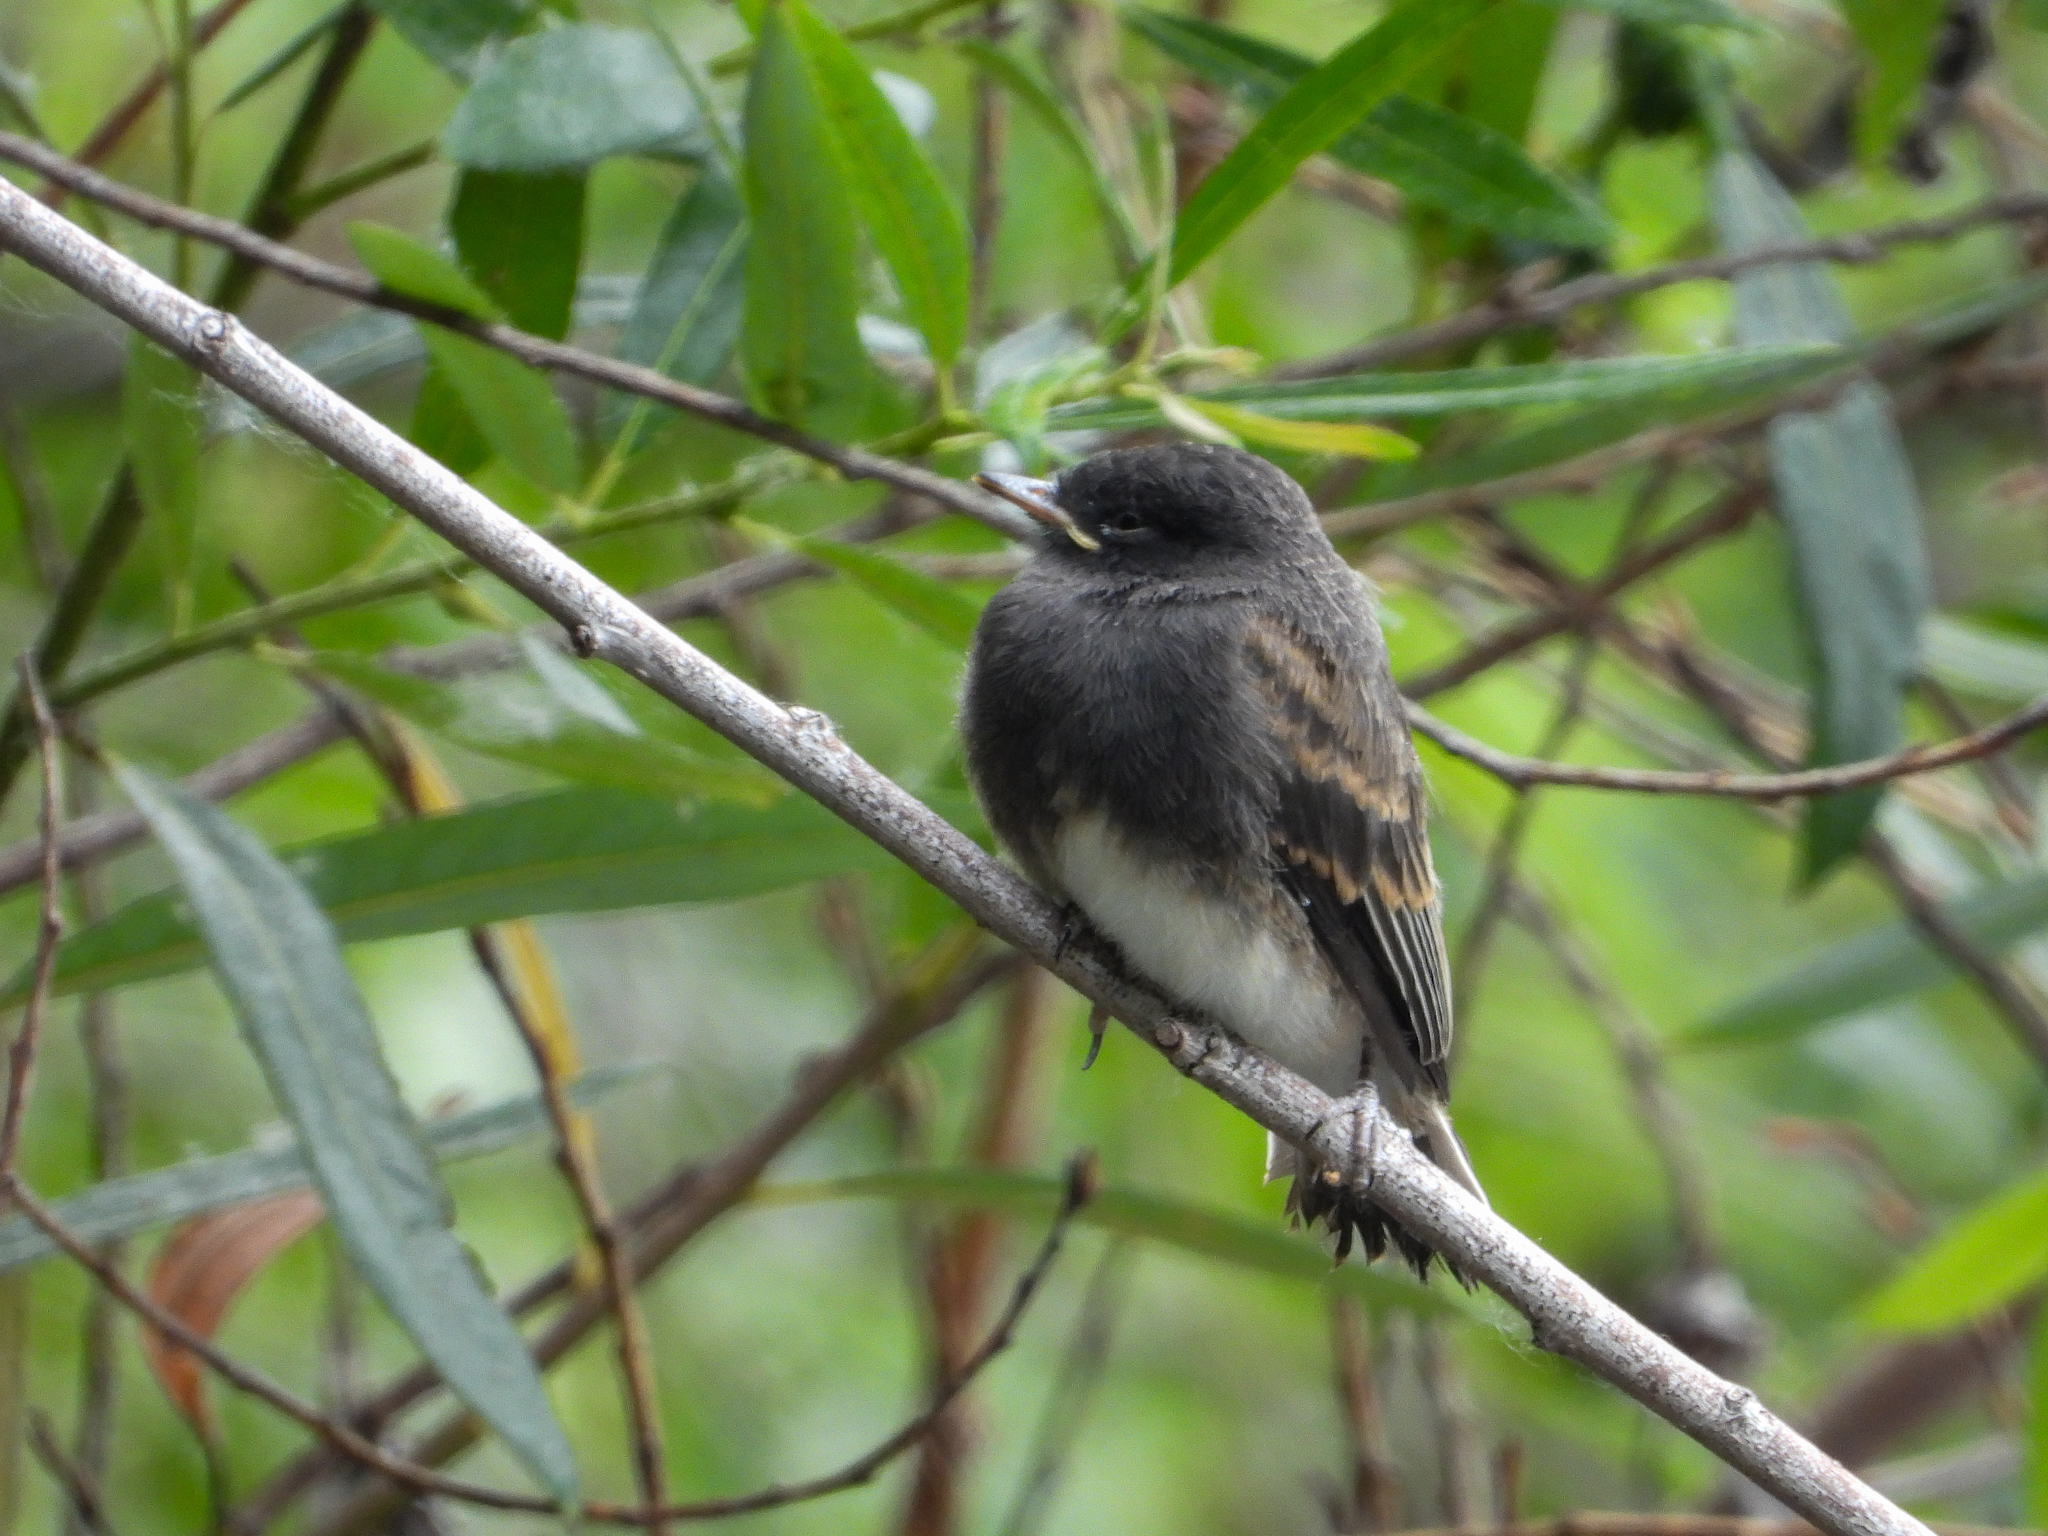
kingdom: Animalia
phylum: Chordata
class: Aves
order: Passeriformes
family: Tyrannidae
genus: Sayornis
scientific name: Sayornis nigricans
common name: Black phoebe
